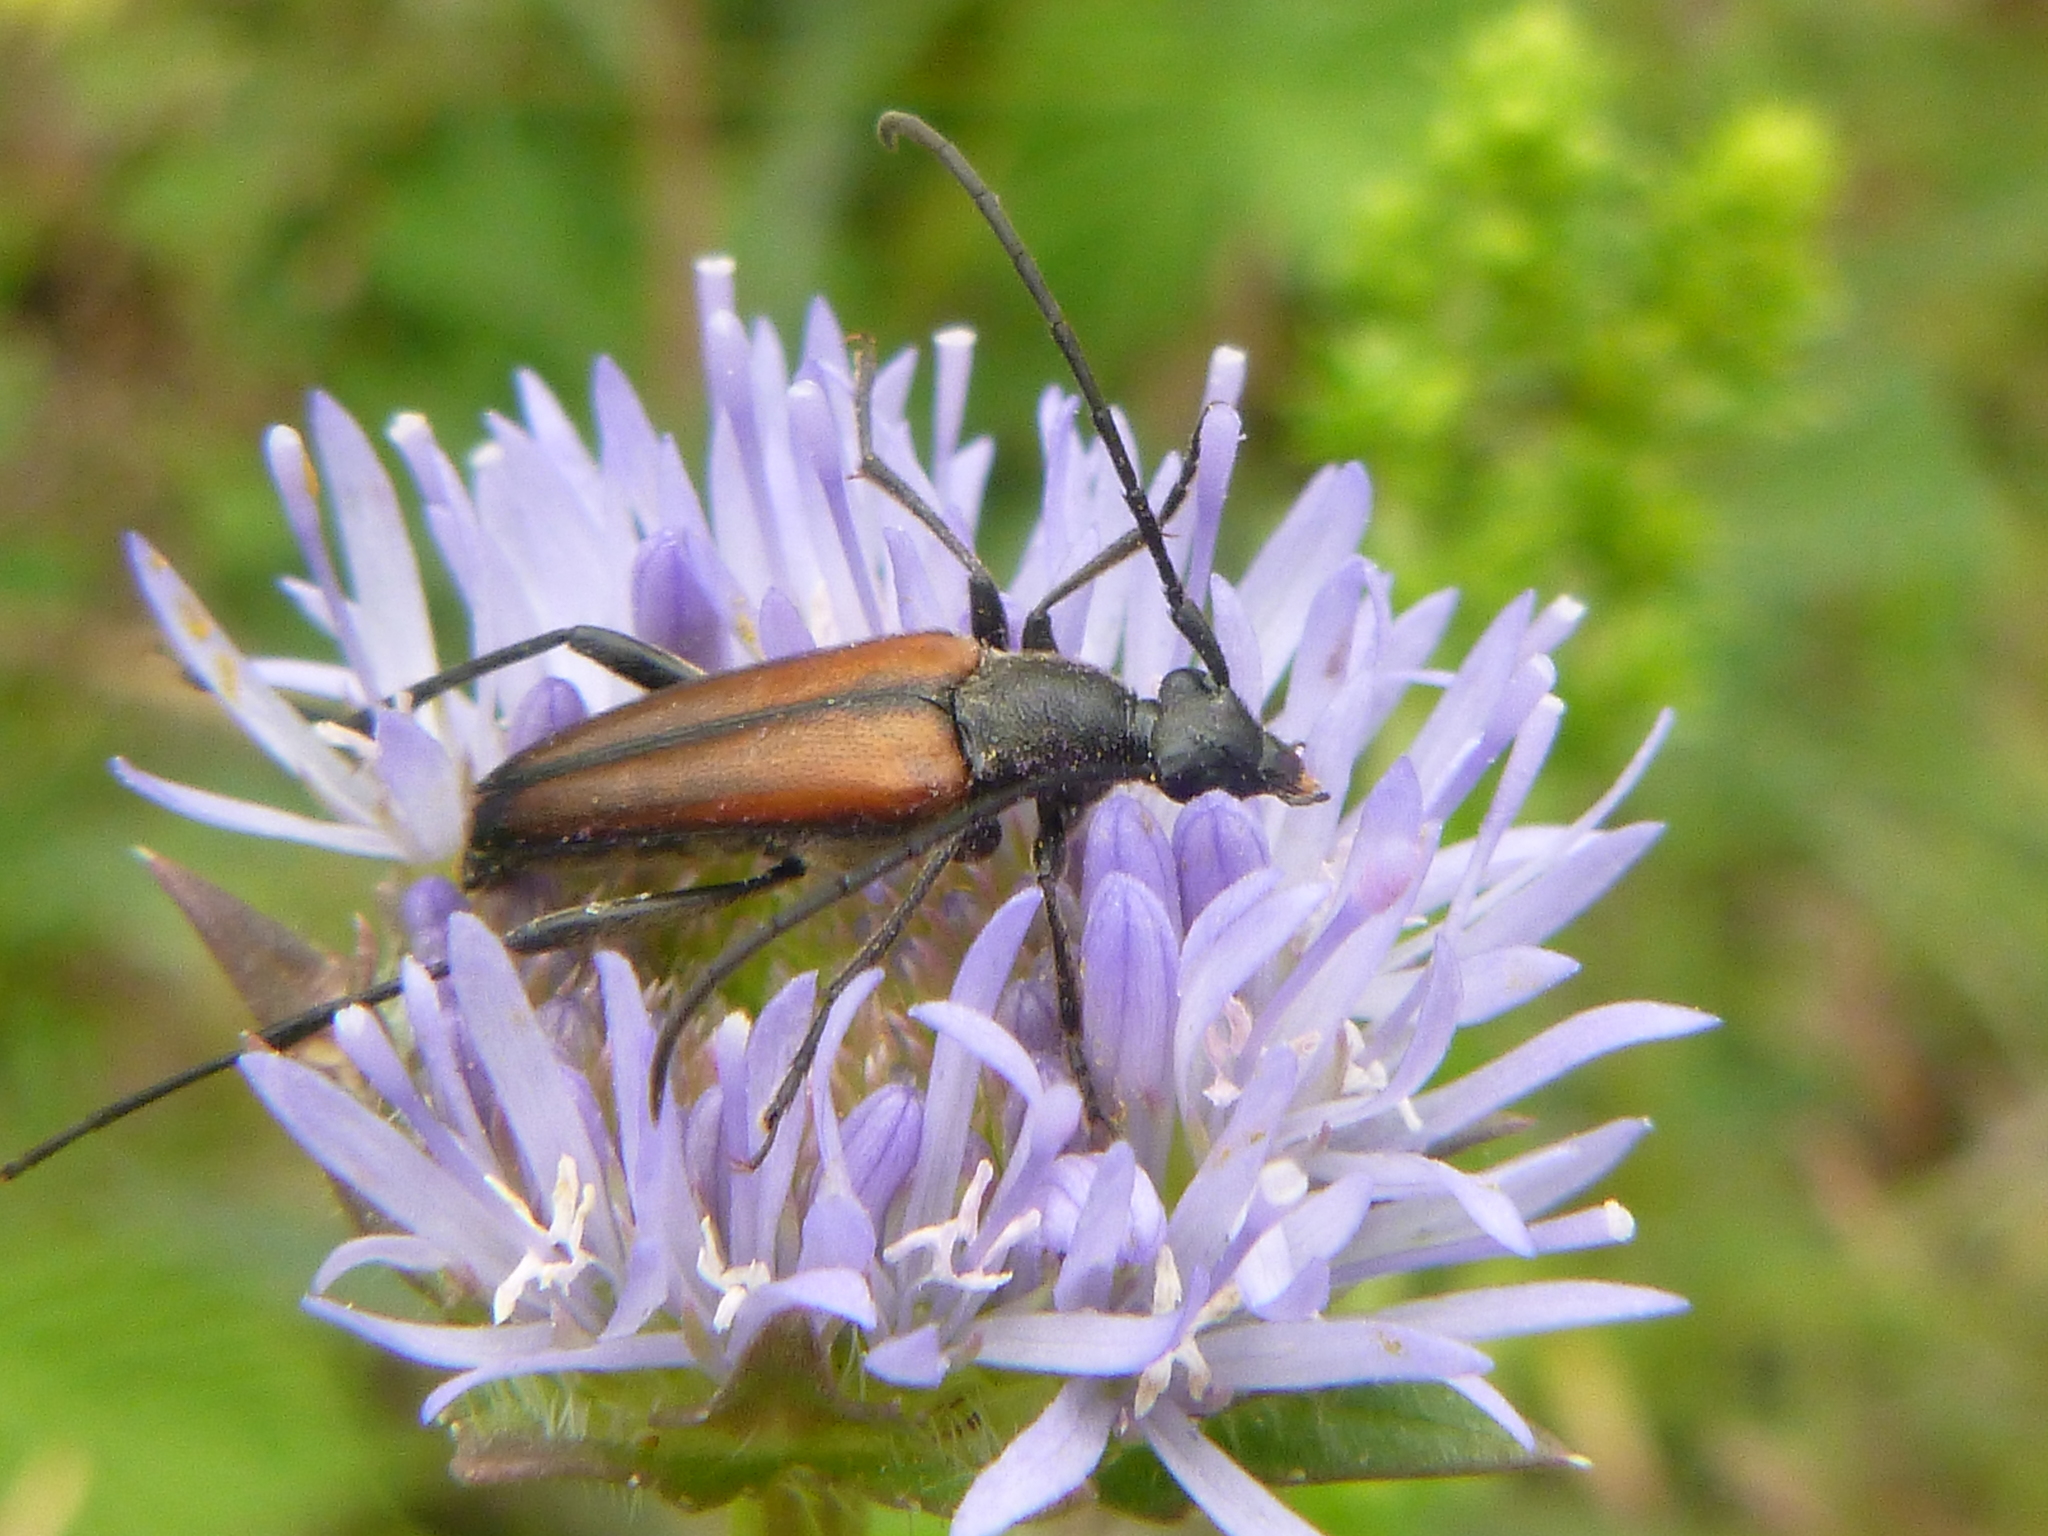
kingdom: Animalia
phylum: Arthropoda
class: Insecta
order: Coleoptera
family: Cerambycidae
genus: Stenurella
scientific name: Stenurella melanura
